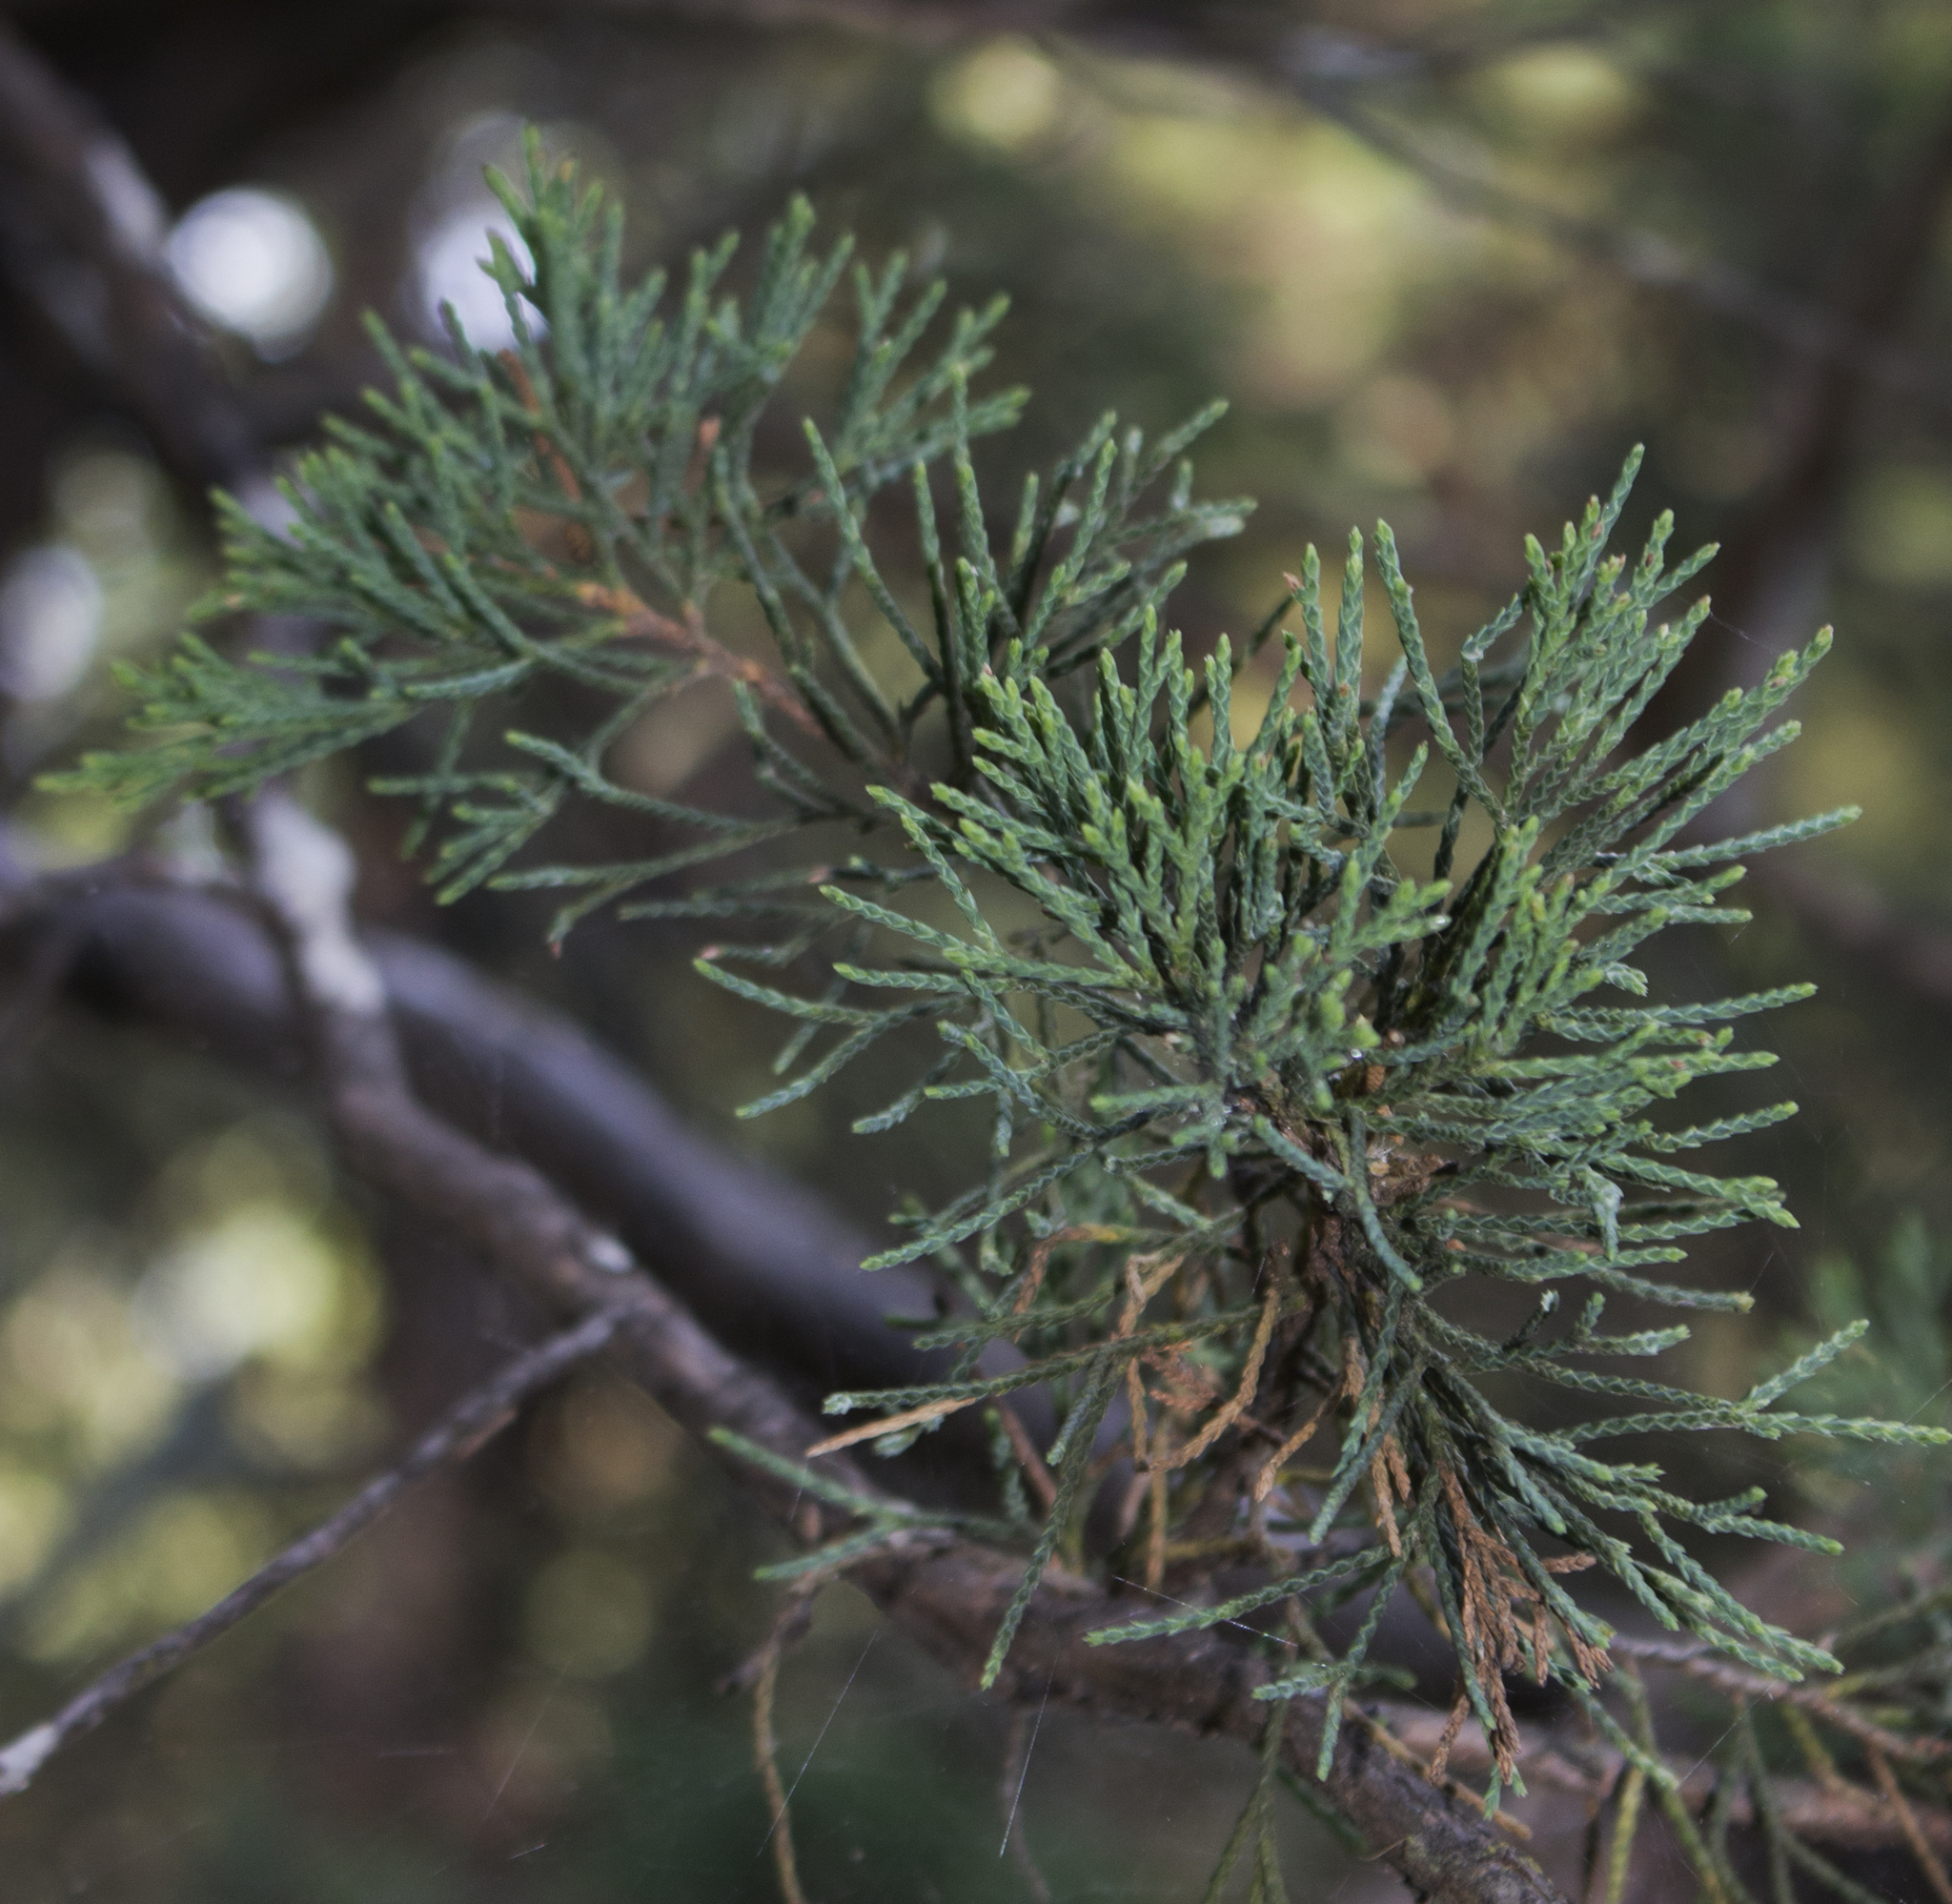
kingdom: Plantae
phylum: Tracheophyta
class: Pinopsida
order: Pinales
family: Cupressaceae
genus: Juniperus
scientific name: Juniperus virginiana
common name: Red juniper
